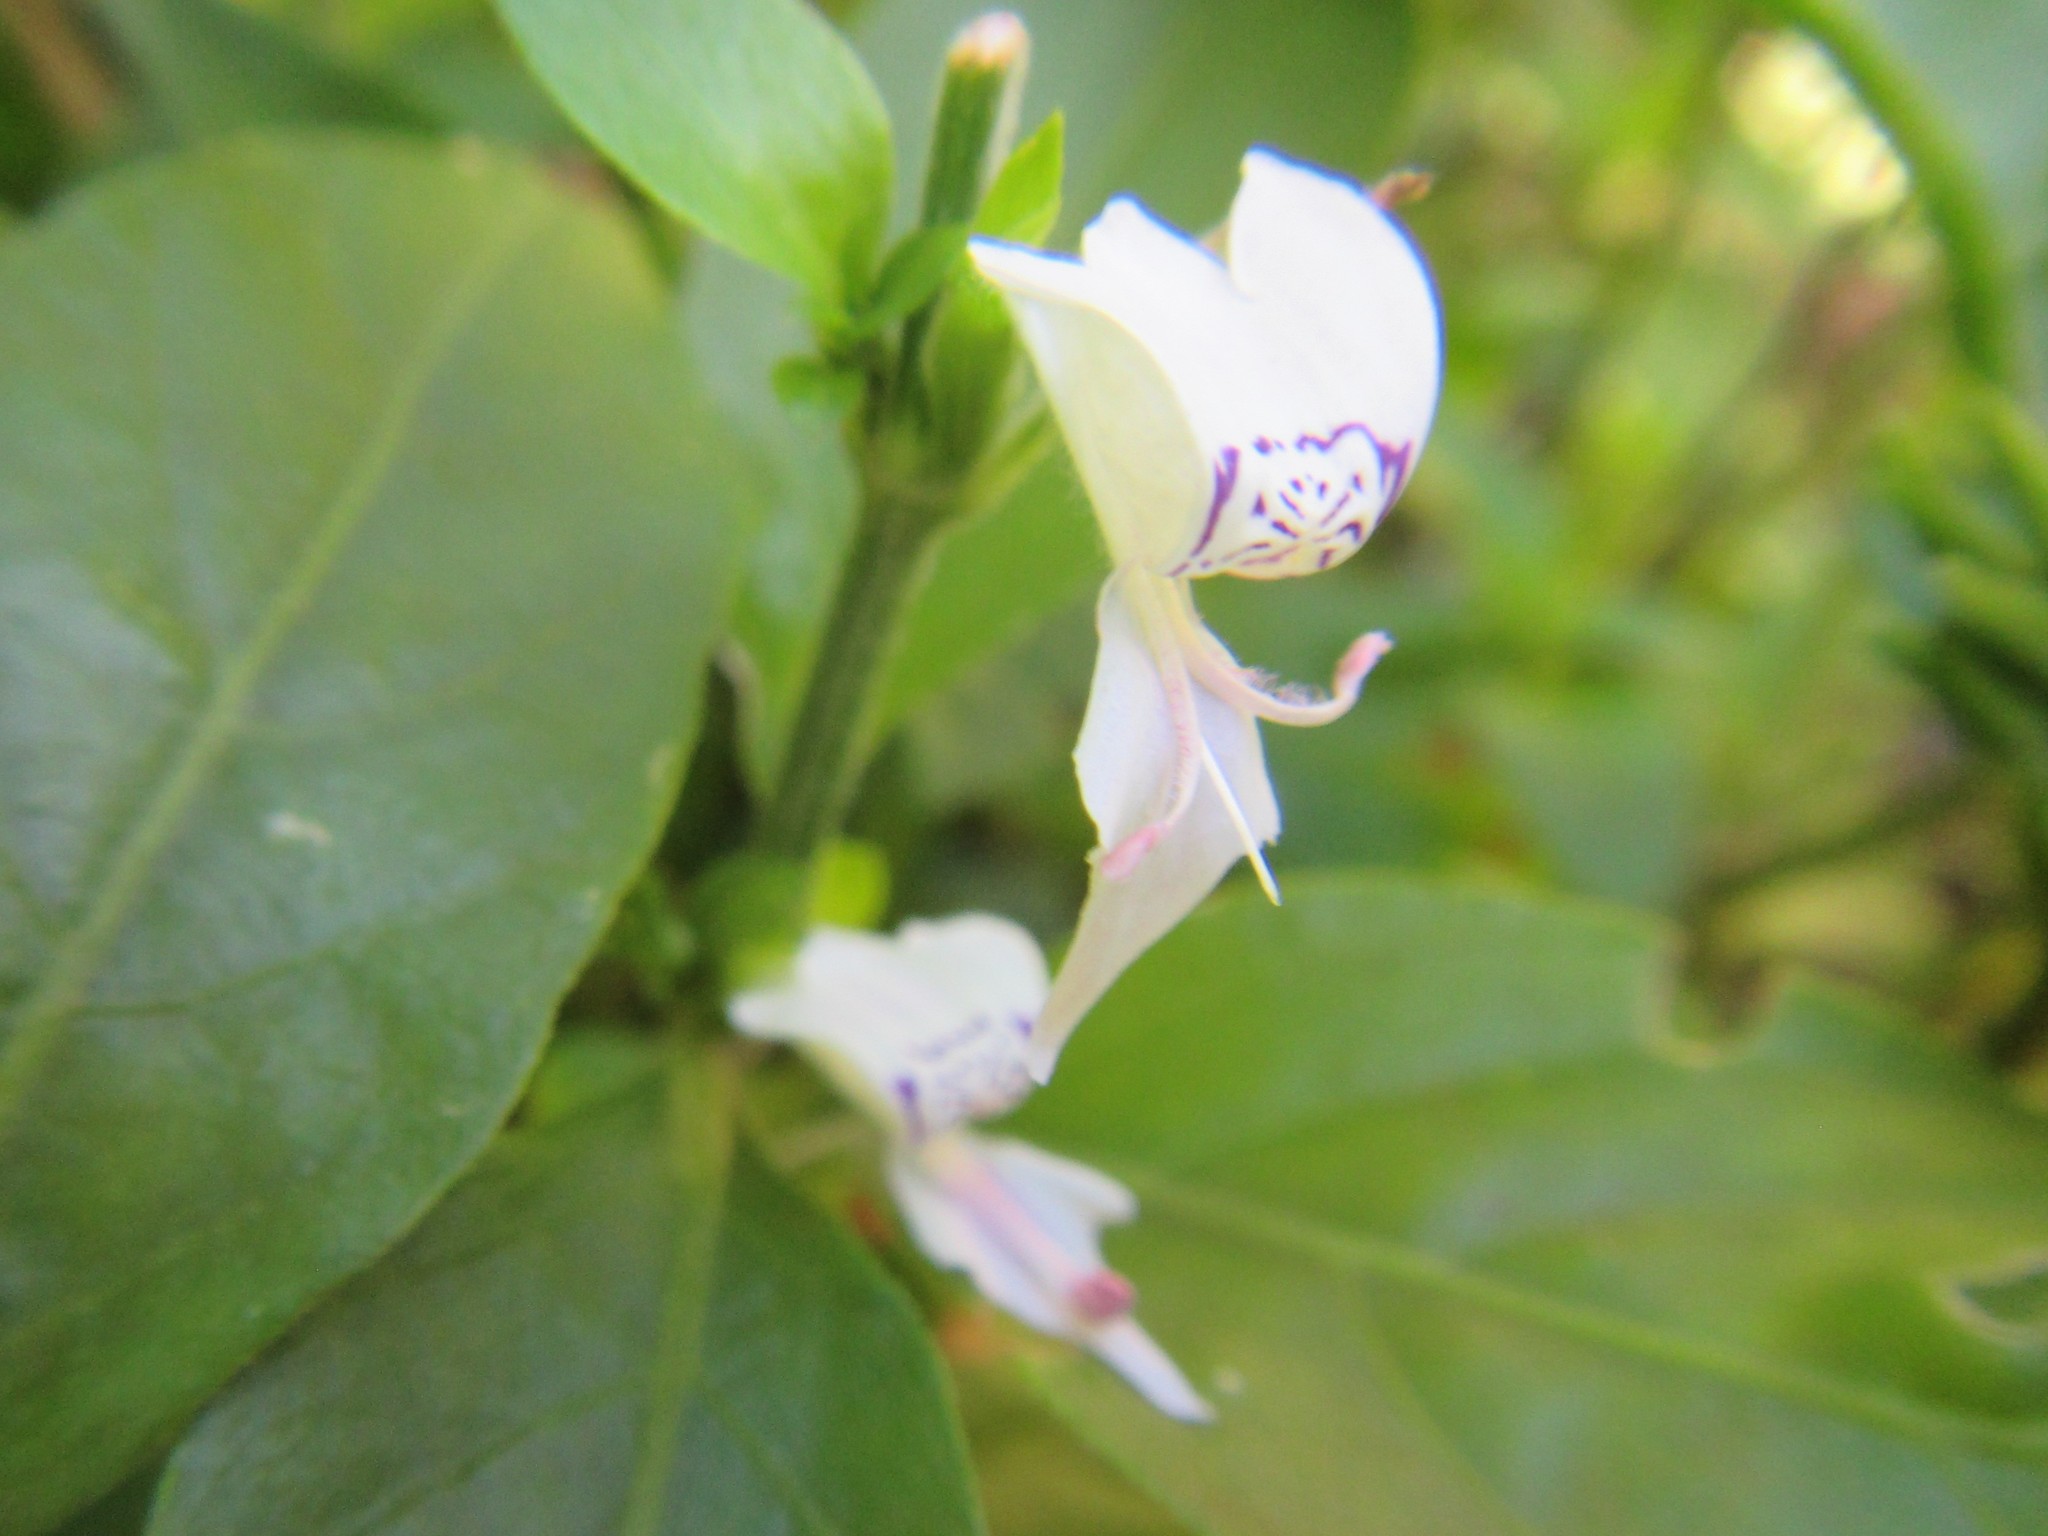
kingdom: Plantae
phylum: Tracheophyta
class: Magnoliopsida
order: Lamiales
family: Acanthaceae
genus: Hypoestes
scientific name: Hypoestes forskaolii
